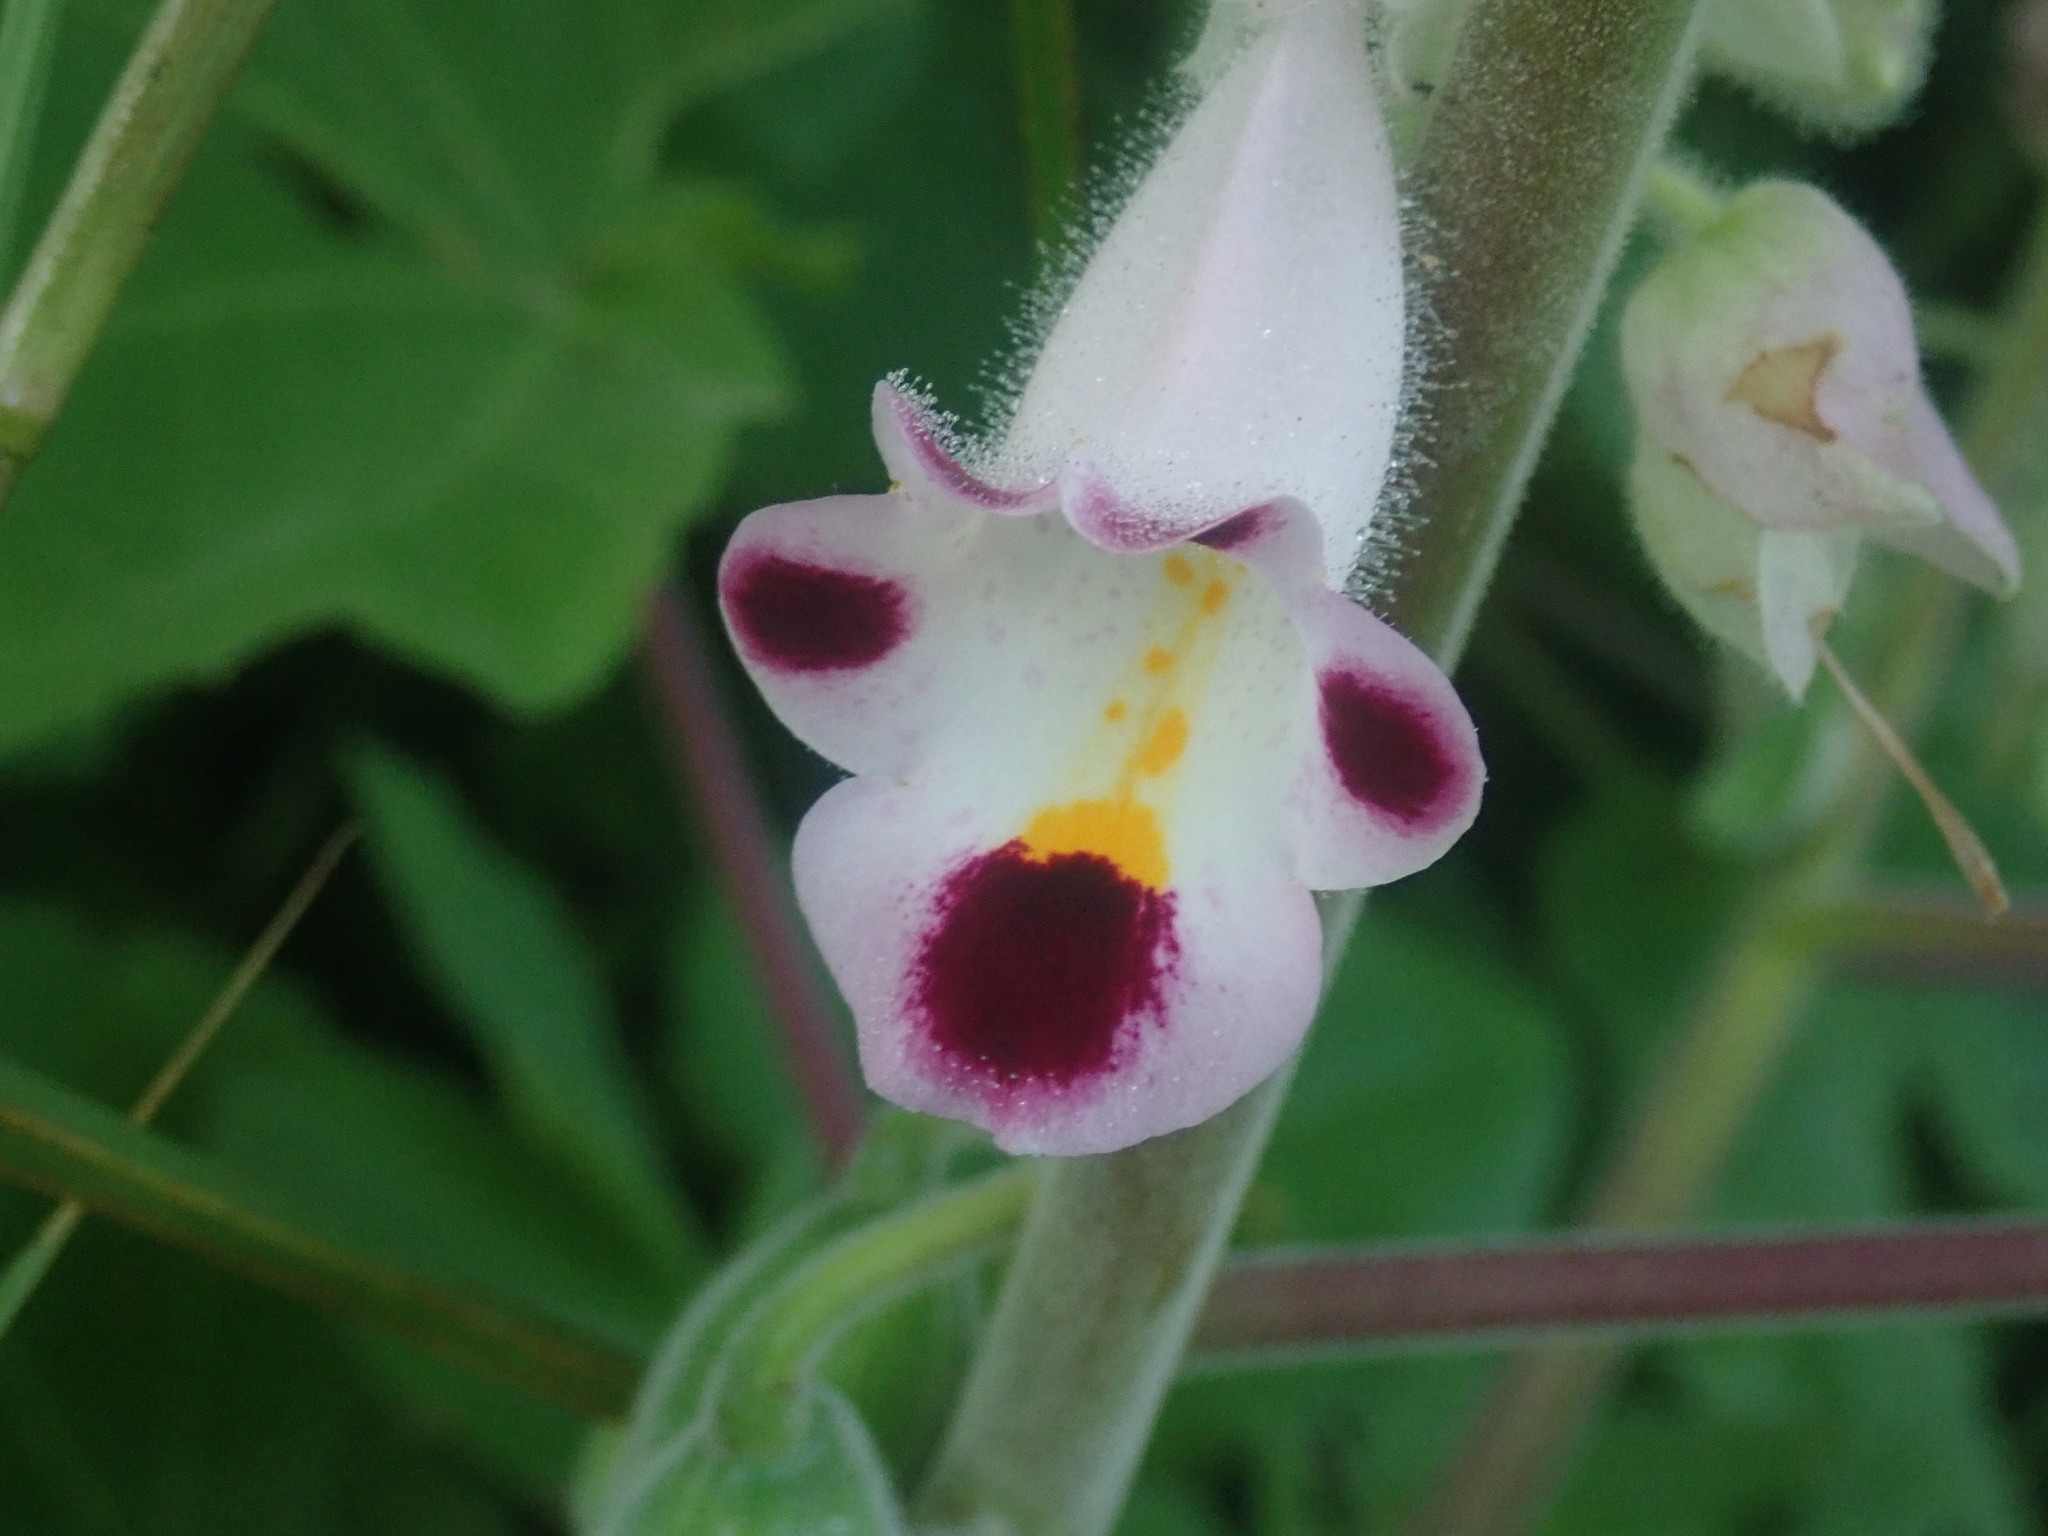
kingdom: Plantae
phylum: Tracheophyta
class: Magnoliopsida
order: Lamiales
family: Martyniaceae
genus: Martynia
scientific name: Martynia annua
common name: Tiger's-claw
